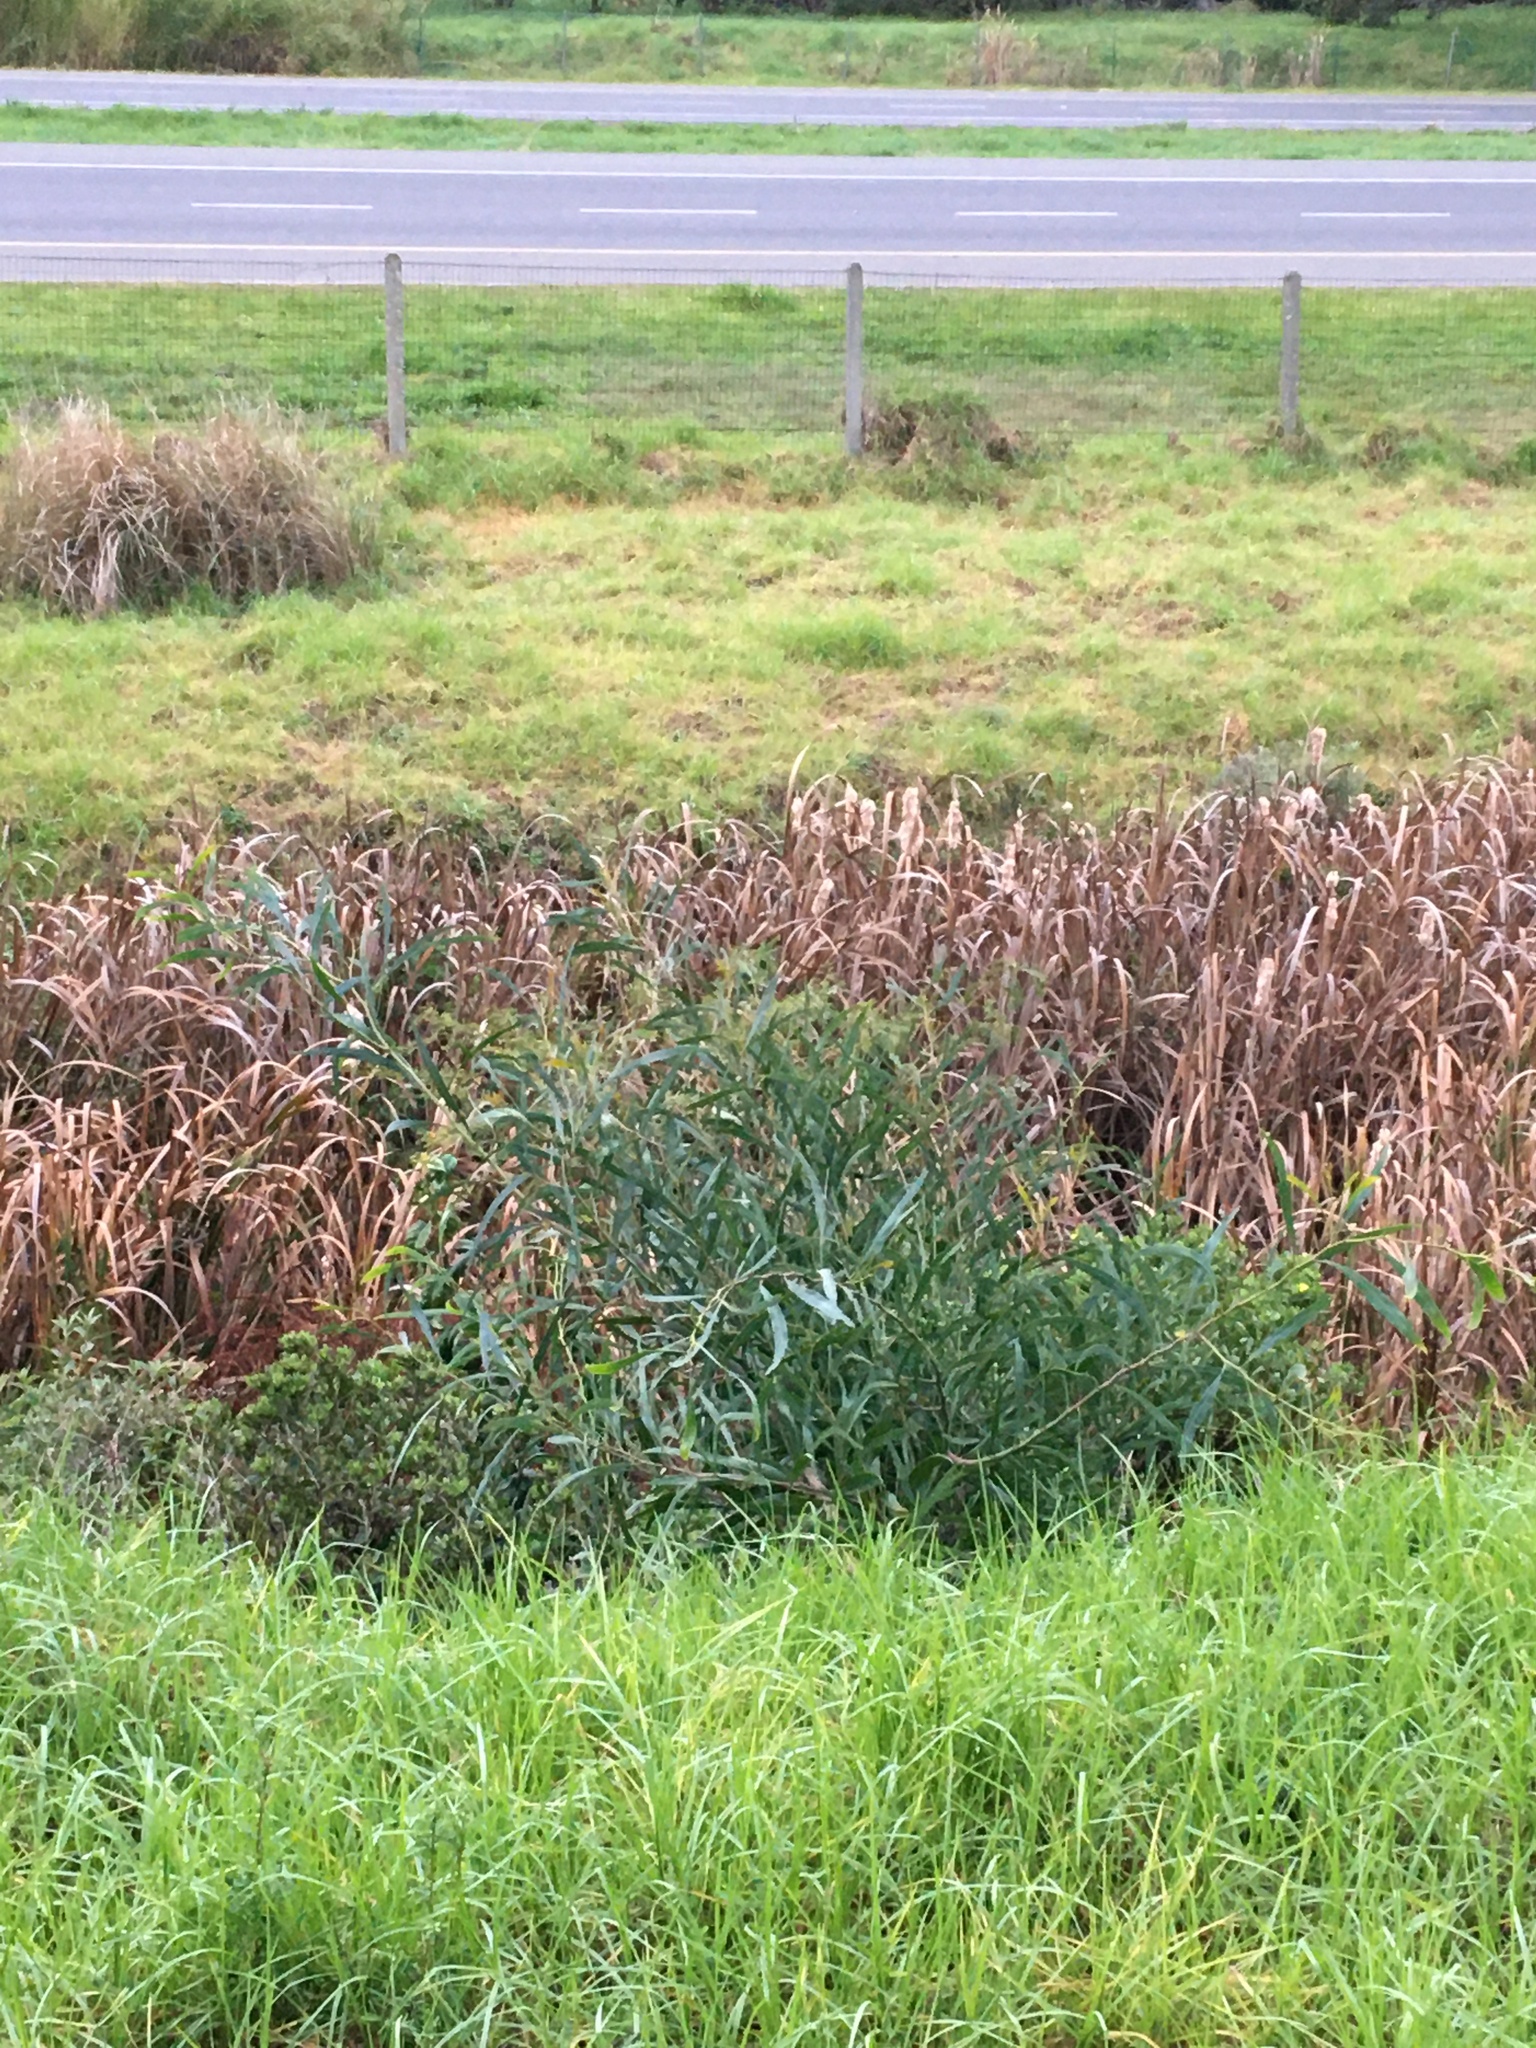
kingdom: Plantae
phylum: Tracheophyta
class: Magnoliopsida
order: Fabales
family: Fabaceae
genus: Acacia
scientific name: Acacia saligna
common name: Orange wattle
